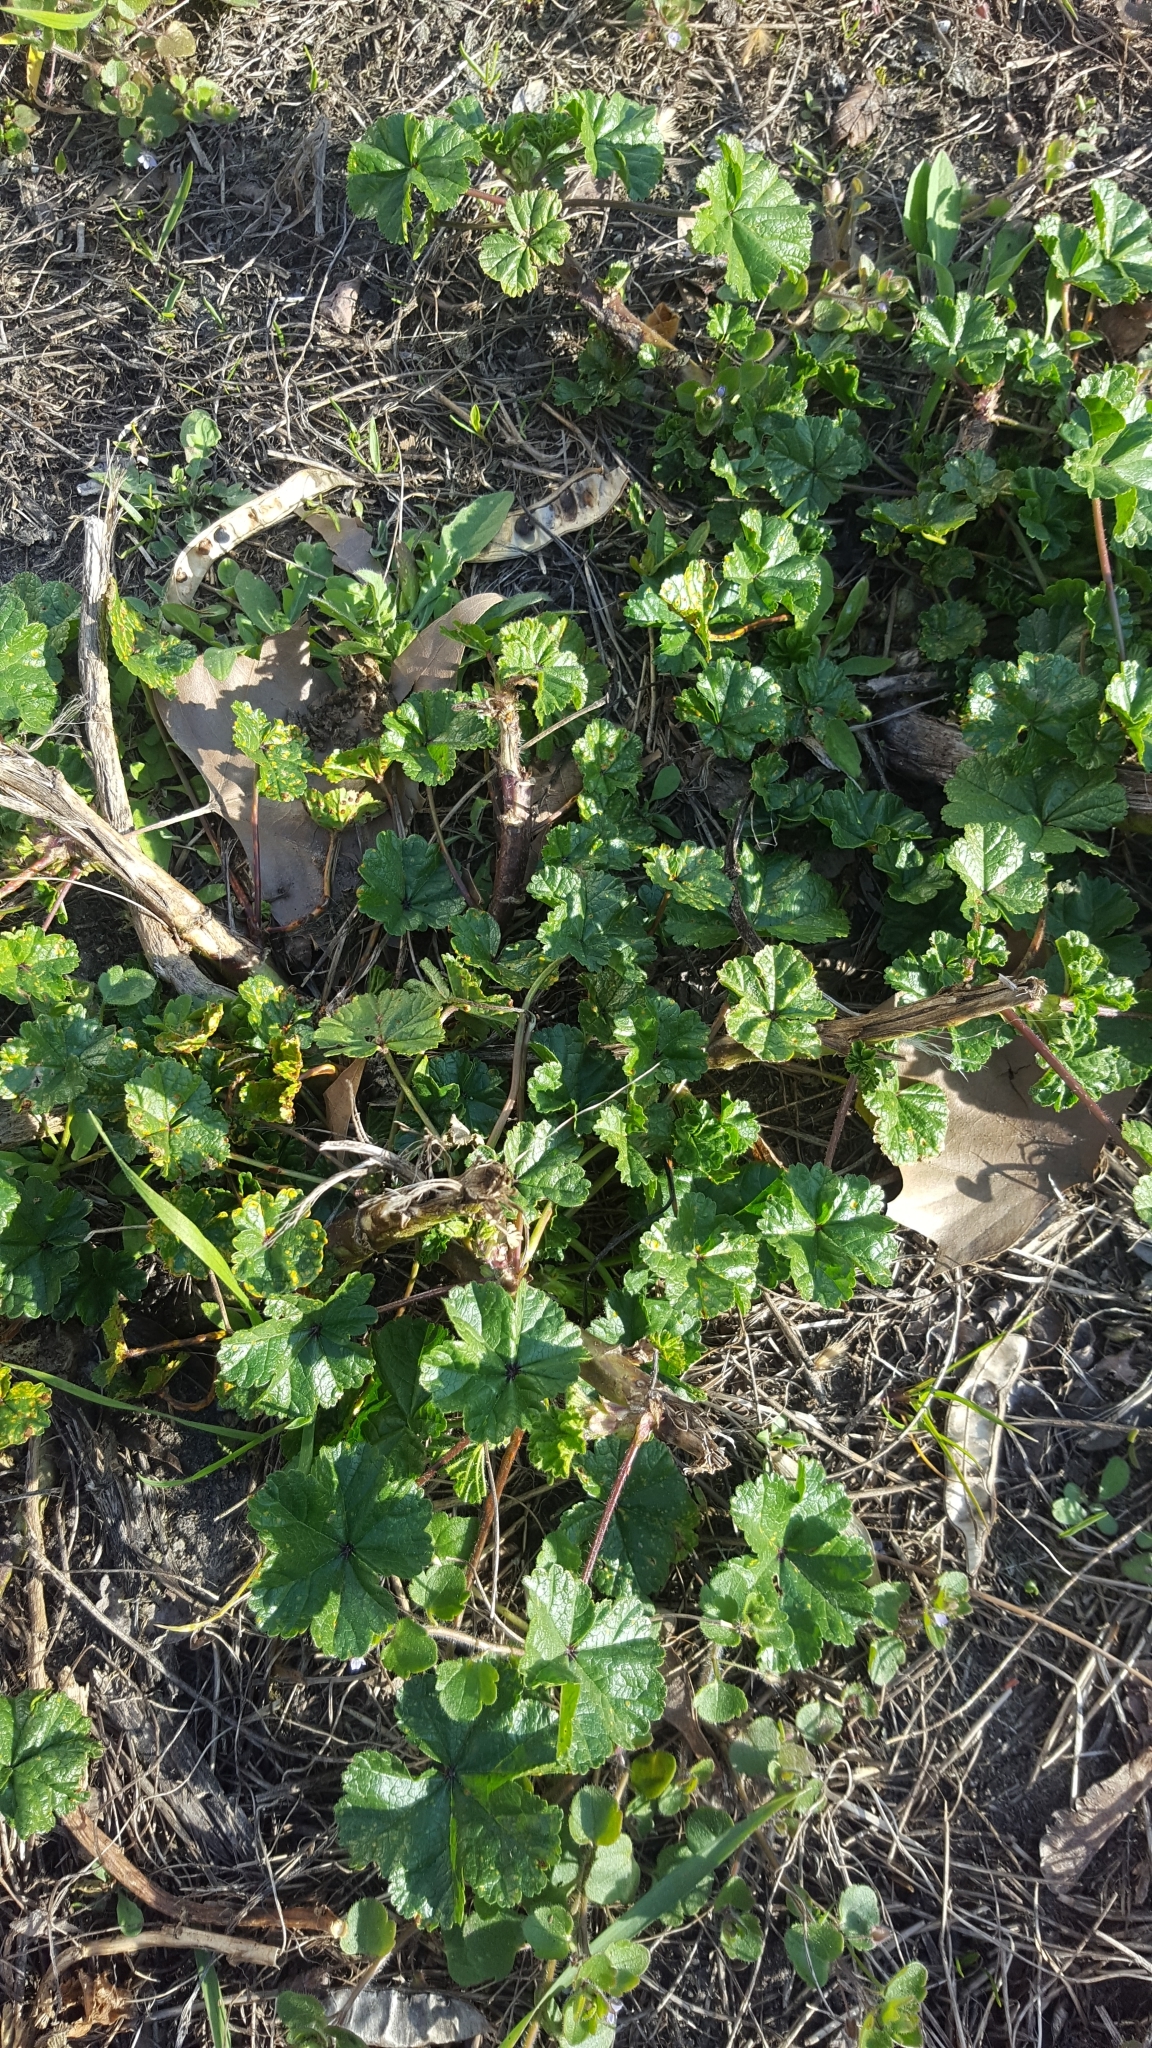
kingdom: Plantae
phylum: Tracheophyta
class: Magnoliopsida
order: Fabales
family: Fabaceae
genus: Robinia
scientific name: Robinia pseudoacacia
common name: Black locust
